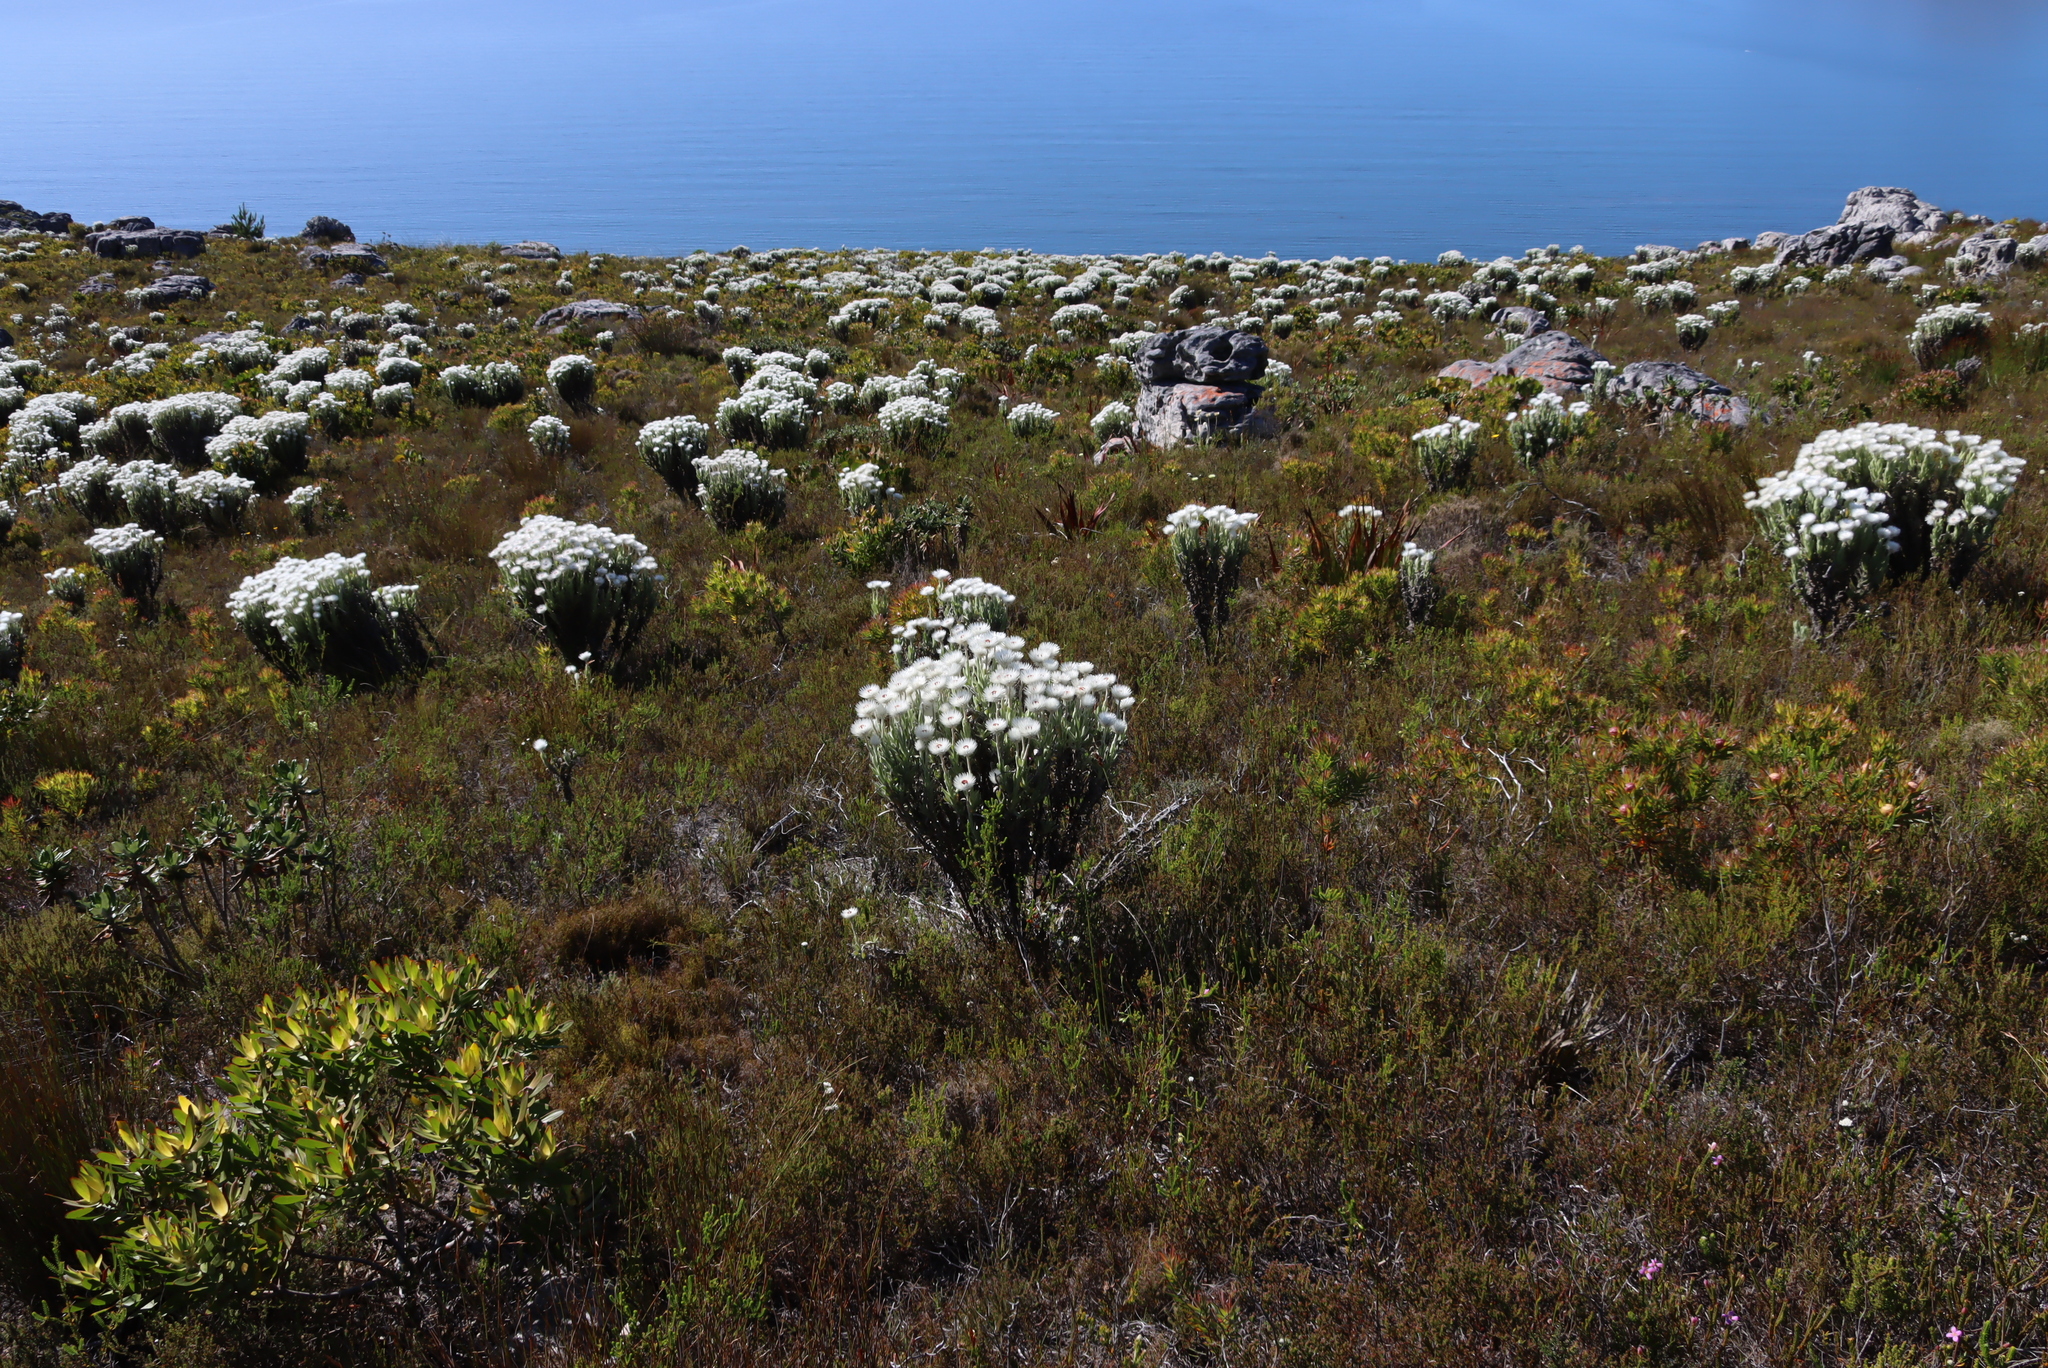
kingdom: Plantae
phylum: Tracheophyta
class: Magnoliopsida
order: Asterales
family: Asteraceae
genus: Syncarpha
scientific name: Syncarpha vestita
